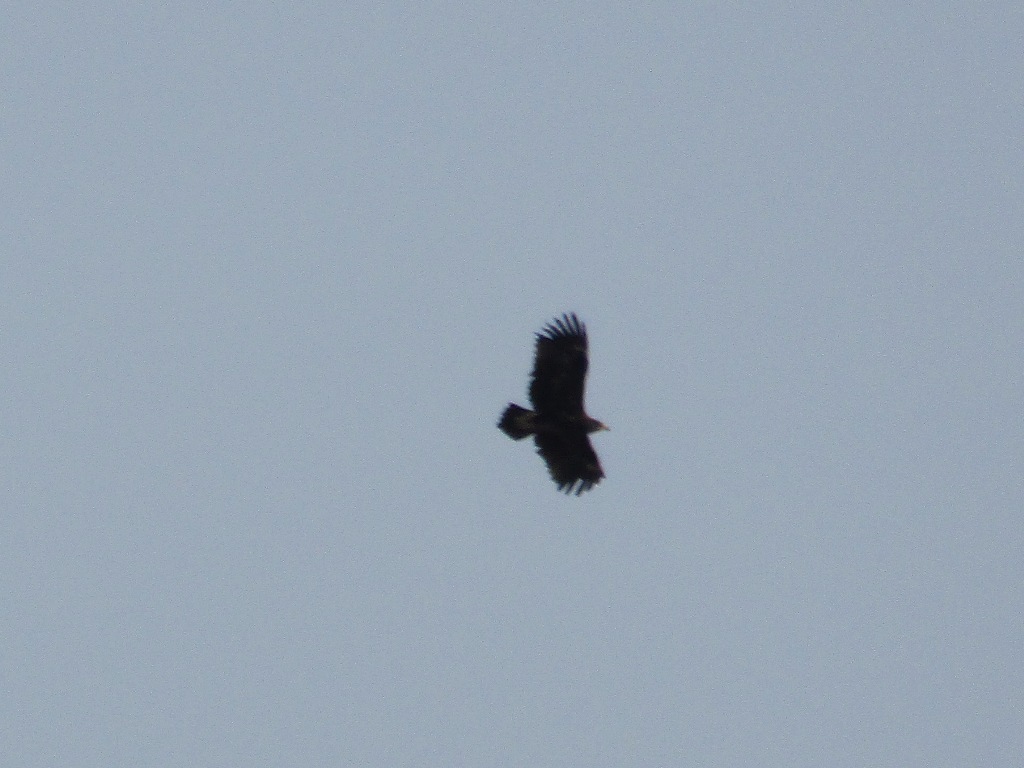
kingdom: Animalia
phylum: Chordata
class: Aves
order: Accipitriformes
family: Accipitridae
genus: Aquila
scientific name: Aquila clanga
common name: Greater spotted eagle
